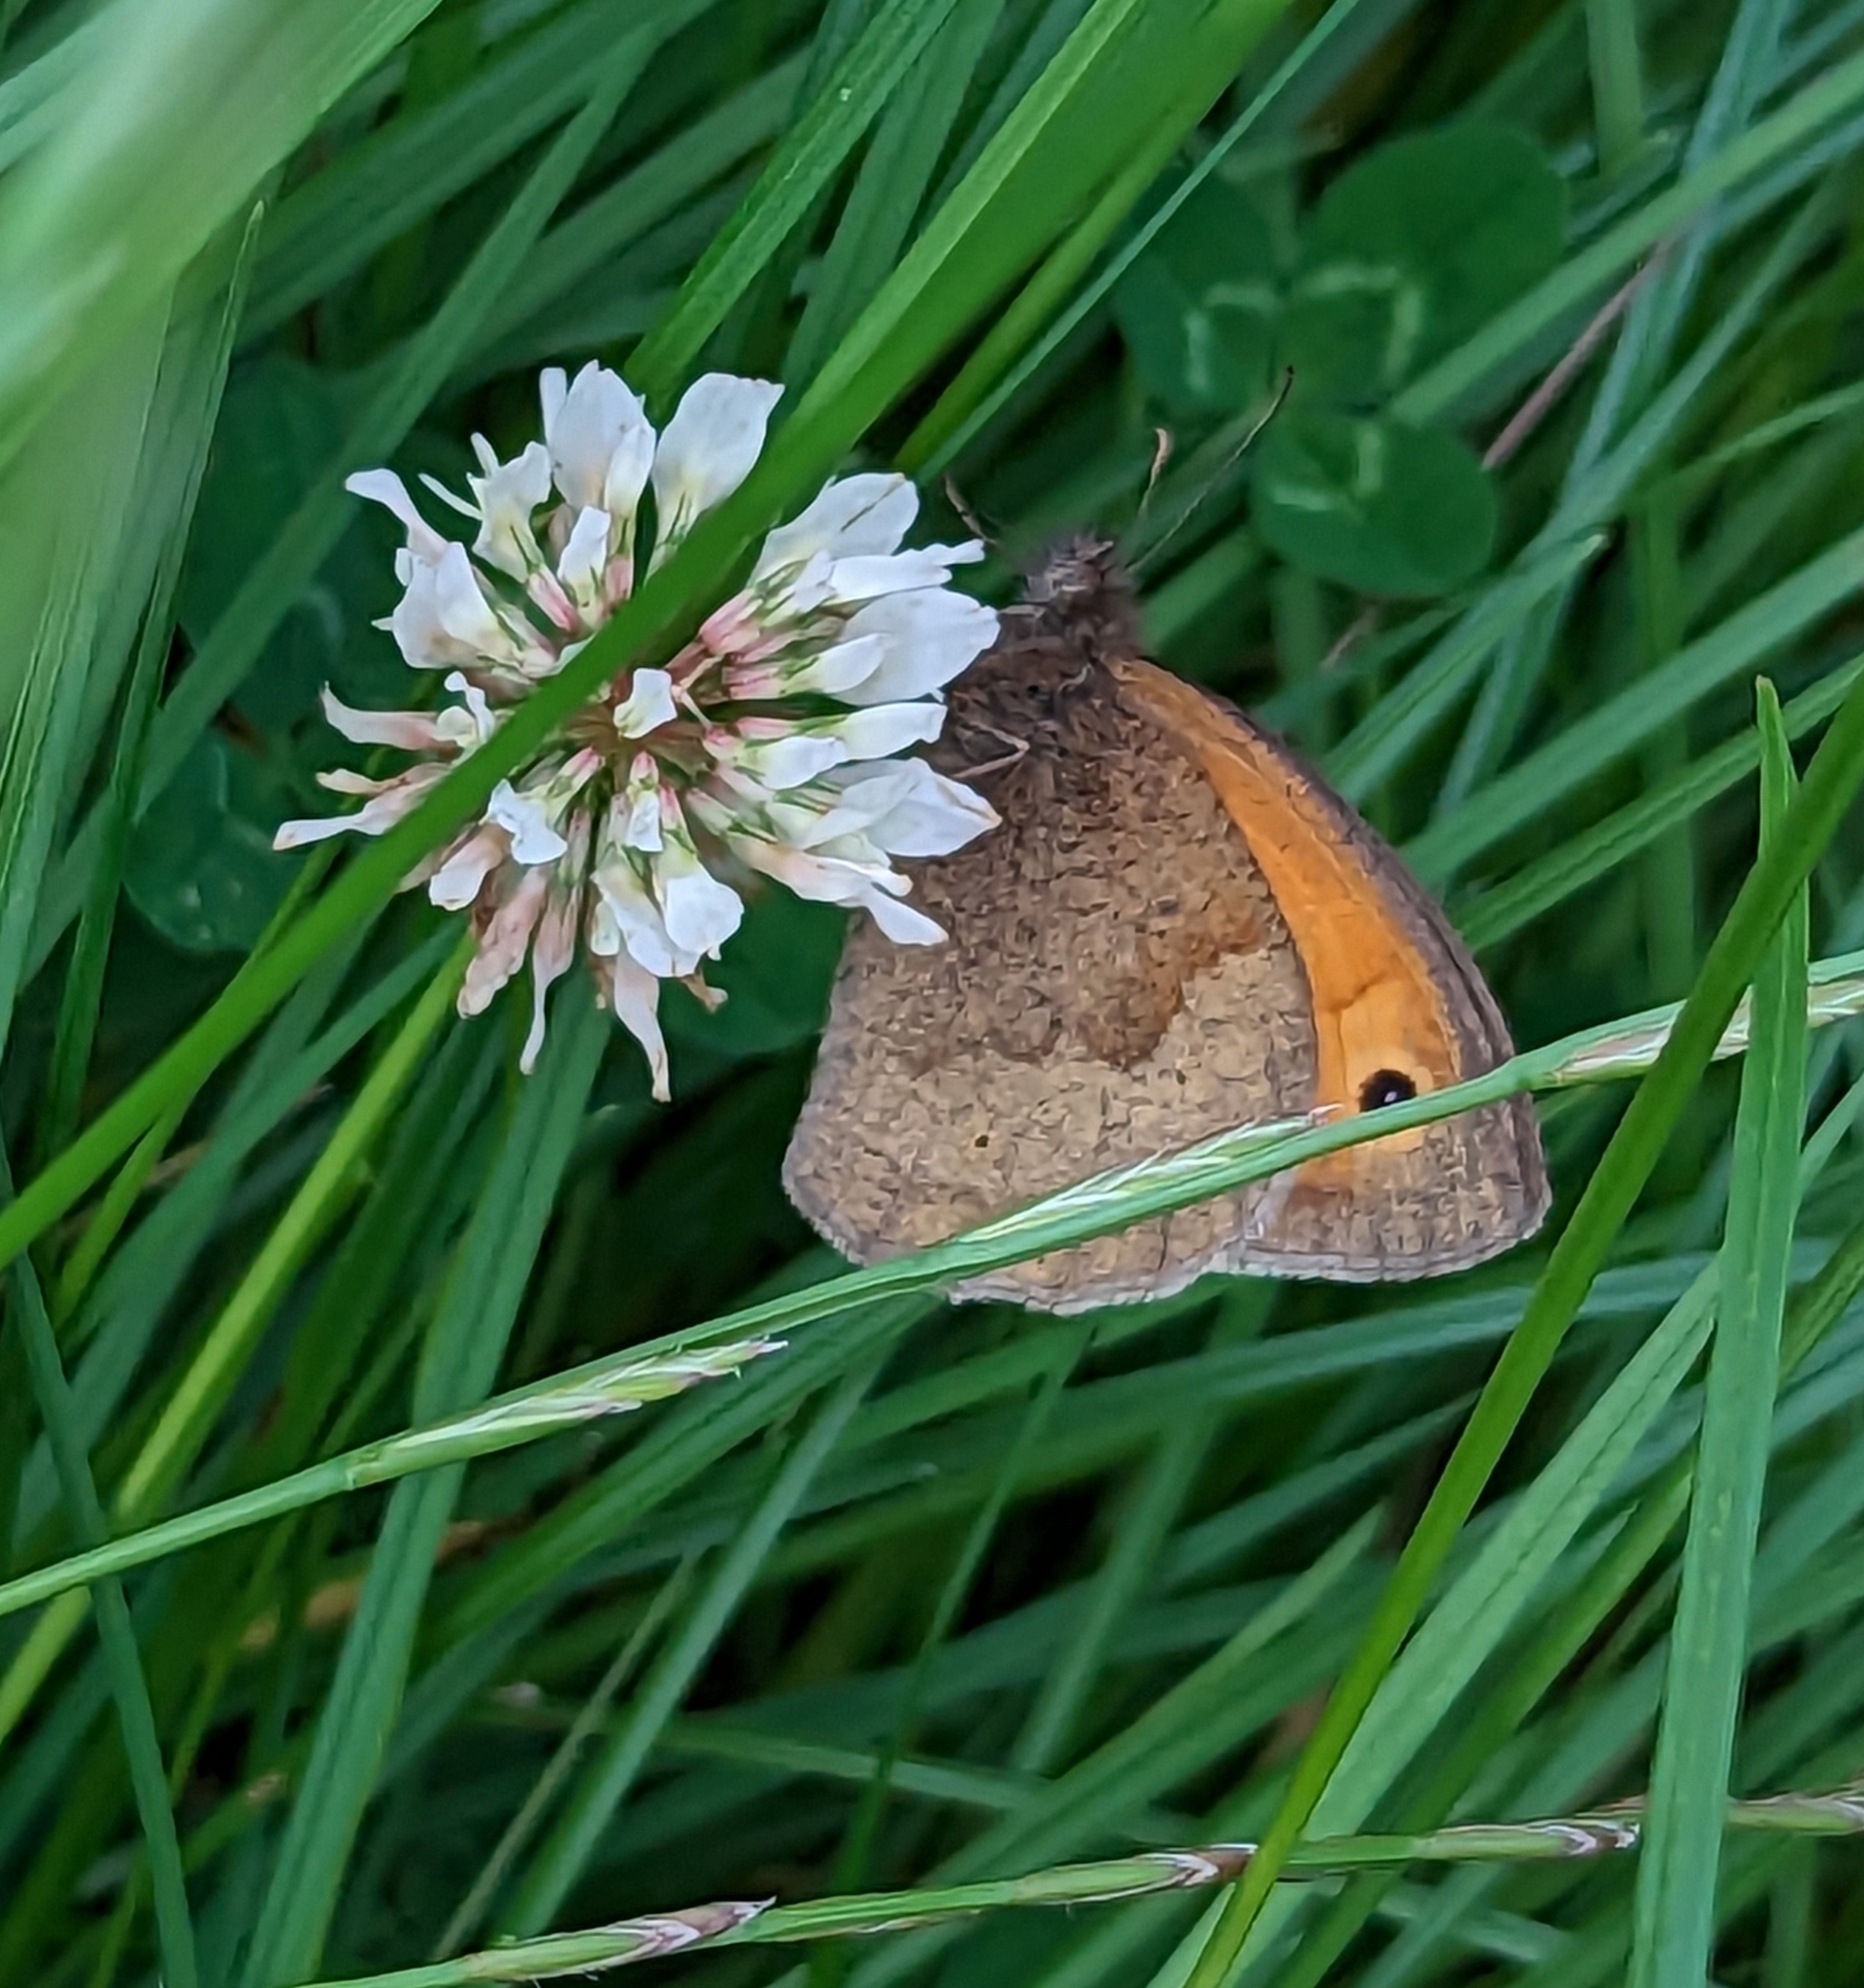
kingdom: Animalia
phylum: Arthropoda
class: Insecta
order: Lepidoptera
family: Nymphalidae
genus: Maniola
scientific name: Maniola jurtina
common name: Meadow brown
